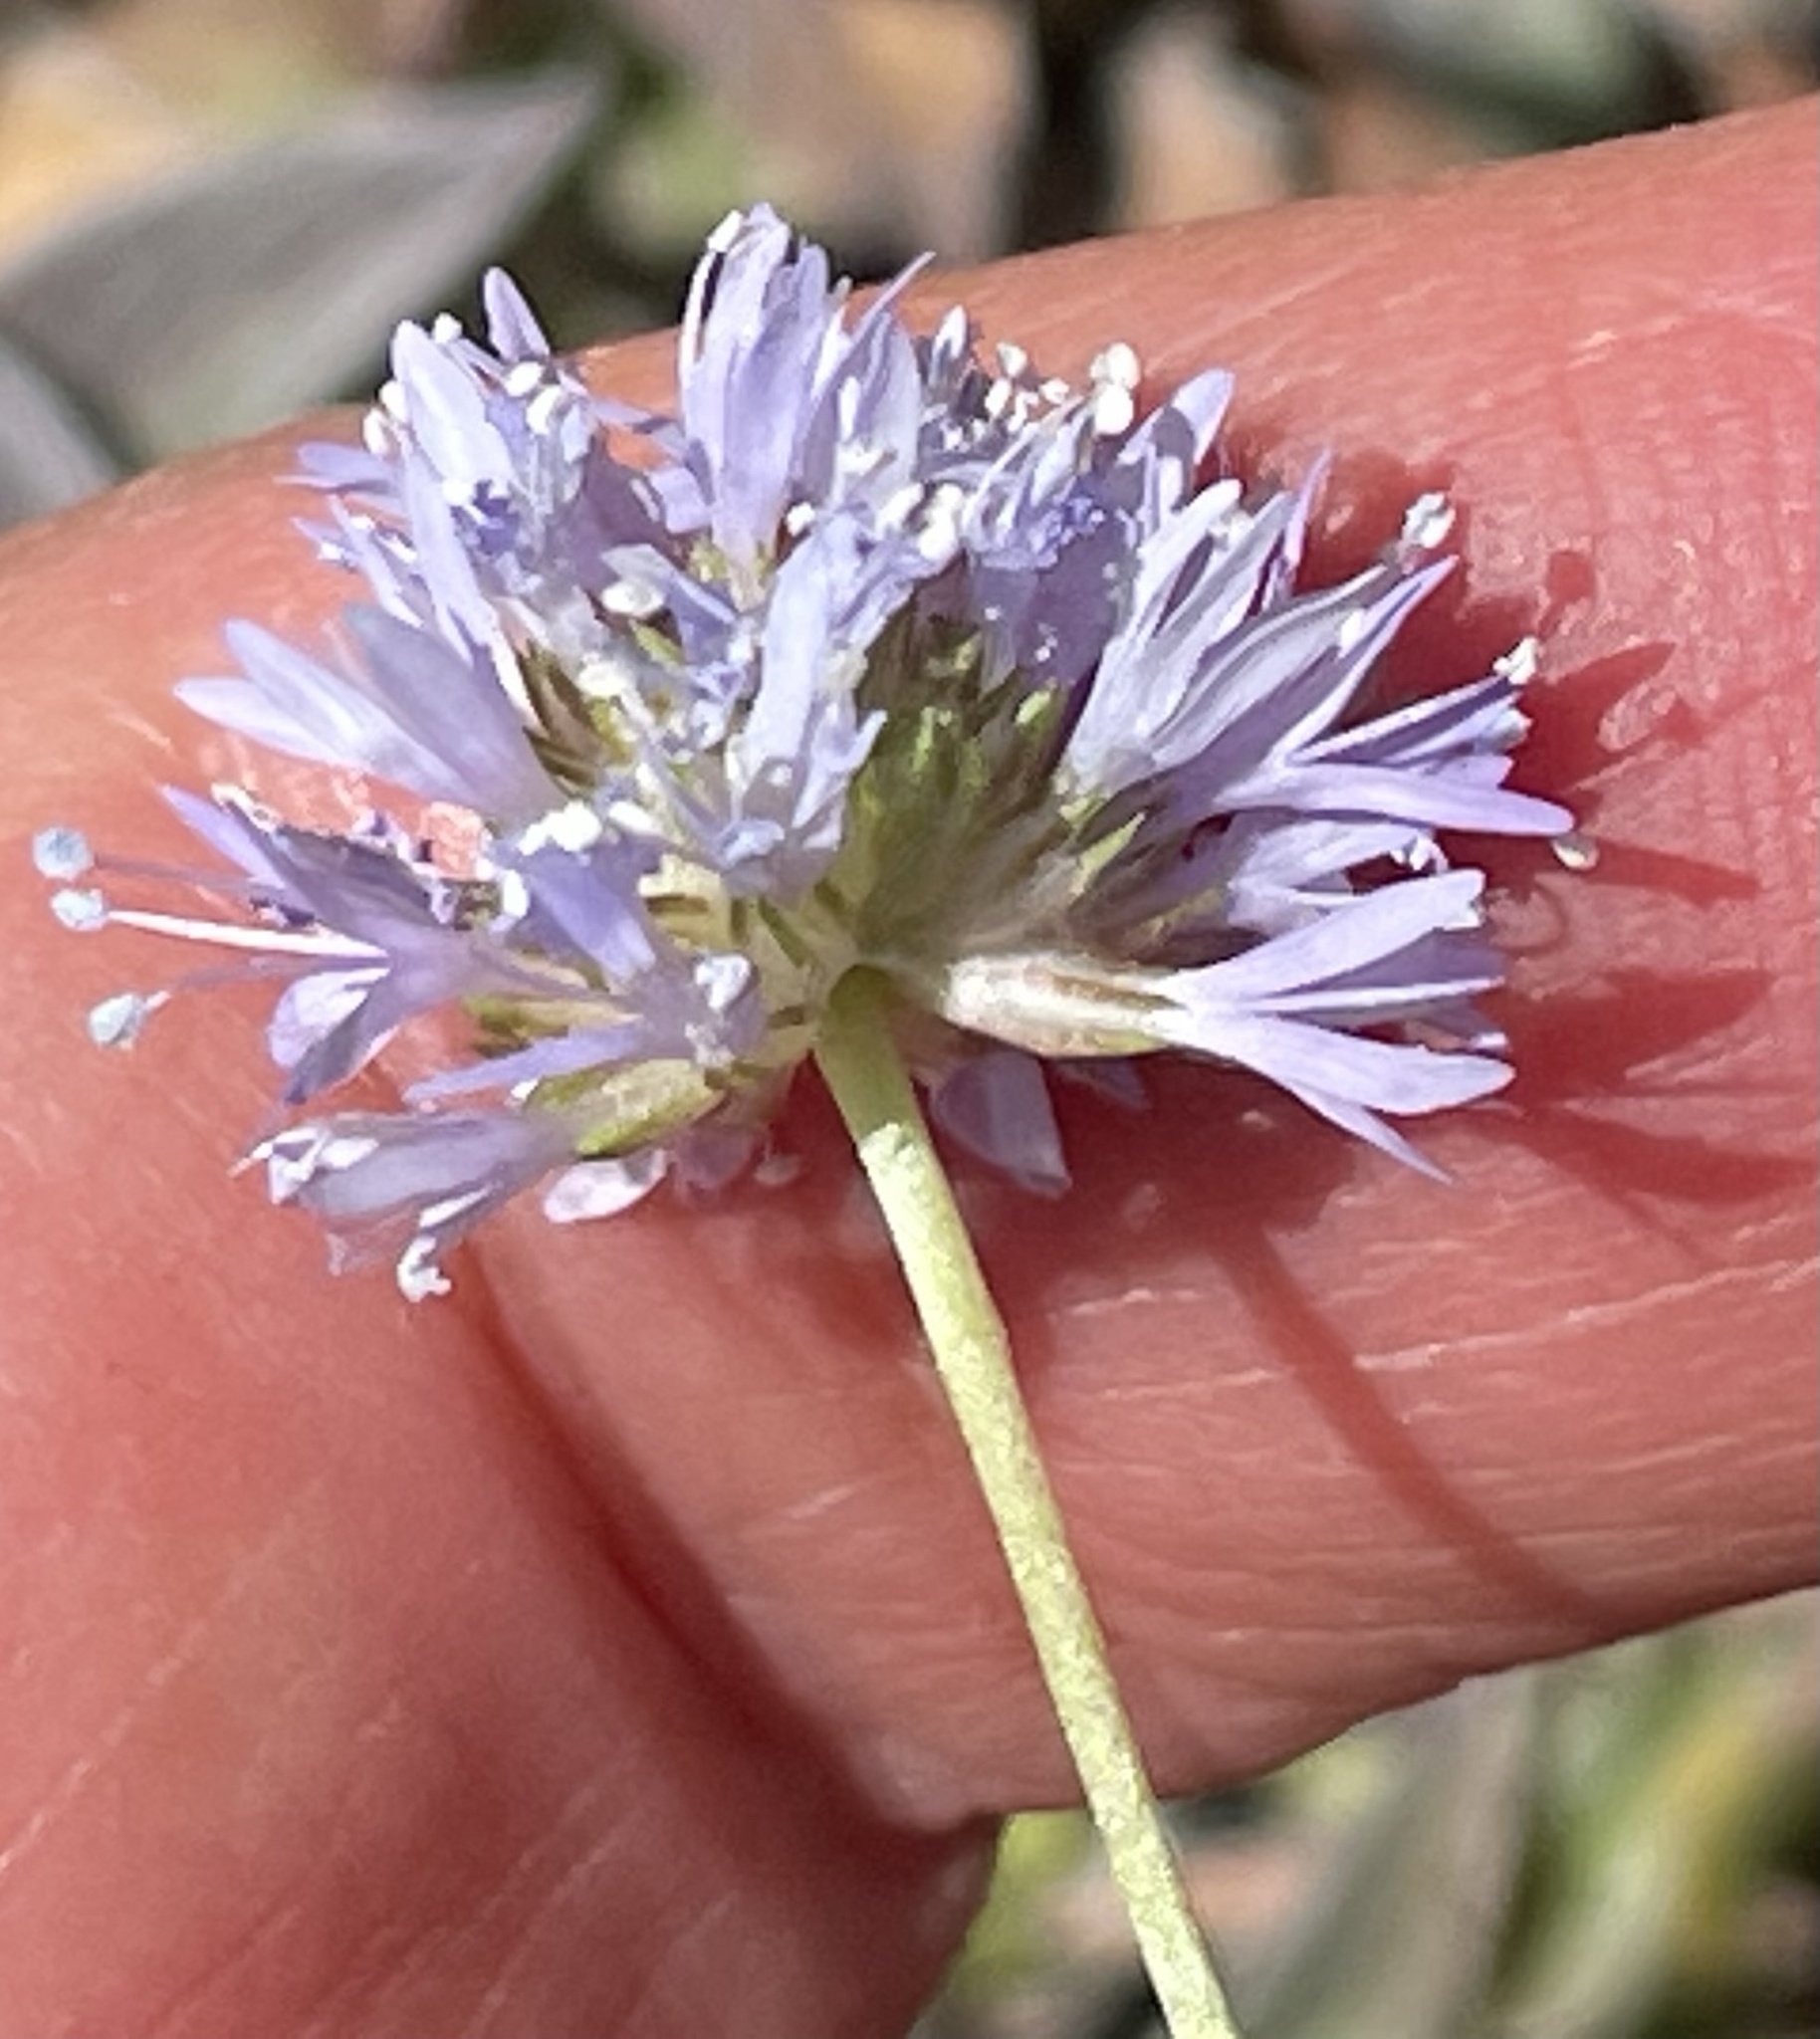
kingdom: Plantae
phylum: Tracheophyta
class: Magnoliopsida
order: Ericales
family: Polemoniaceae
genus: Gilia
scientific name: Gilia capitata
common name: Bluehead gilia
